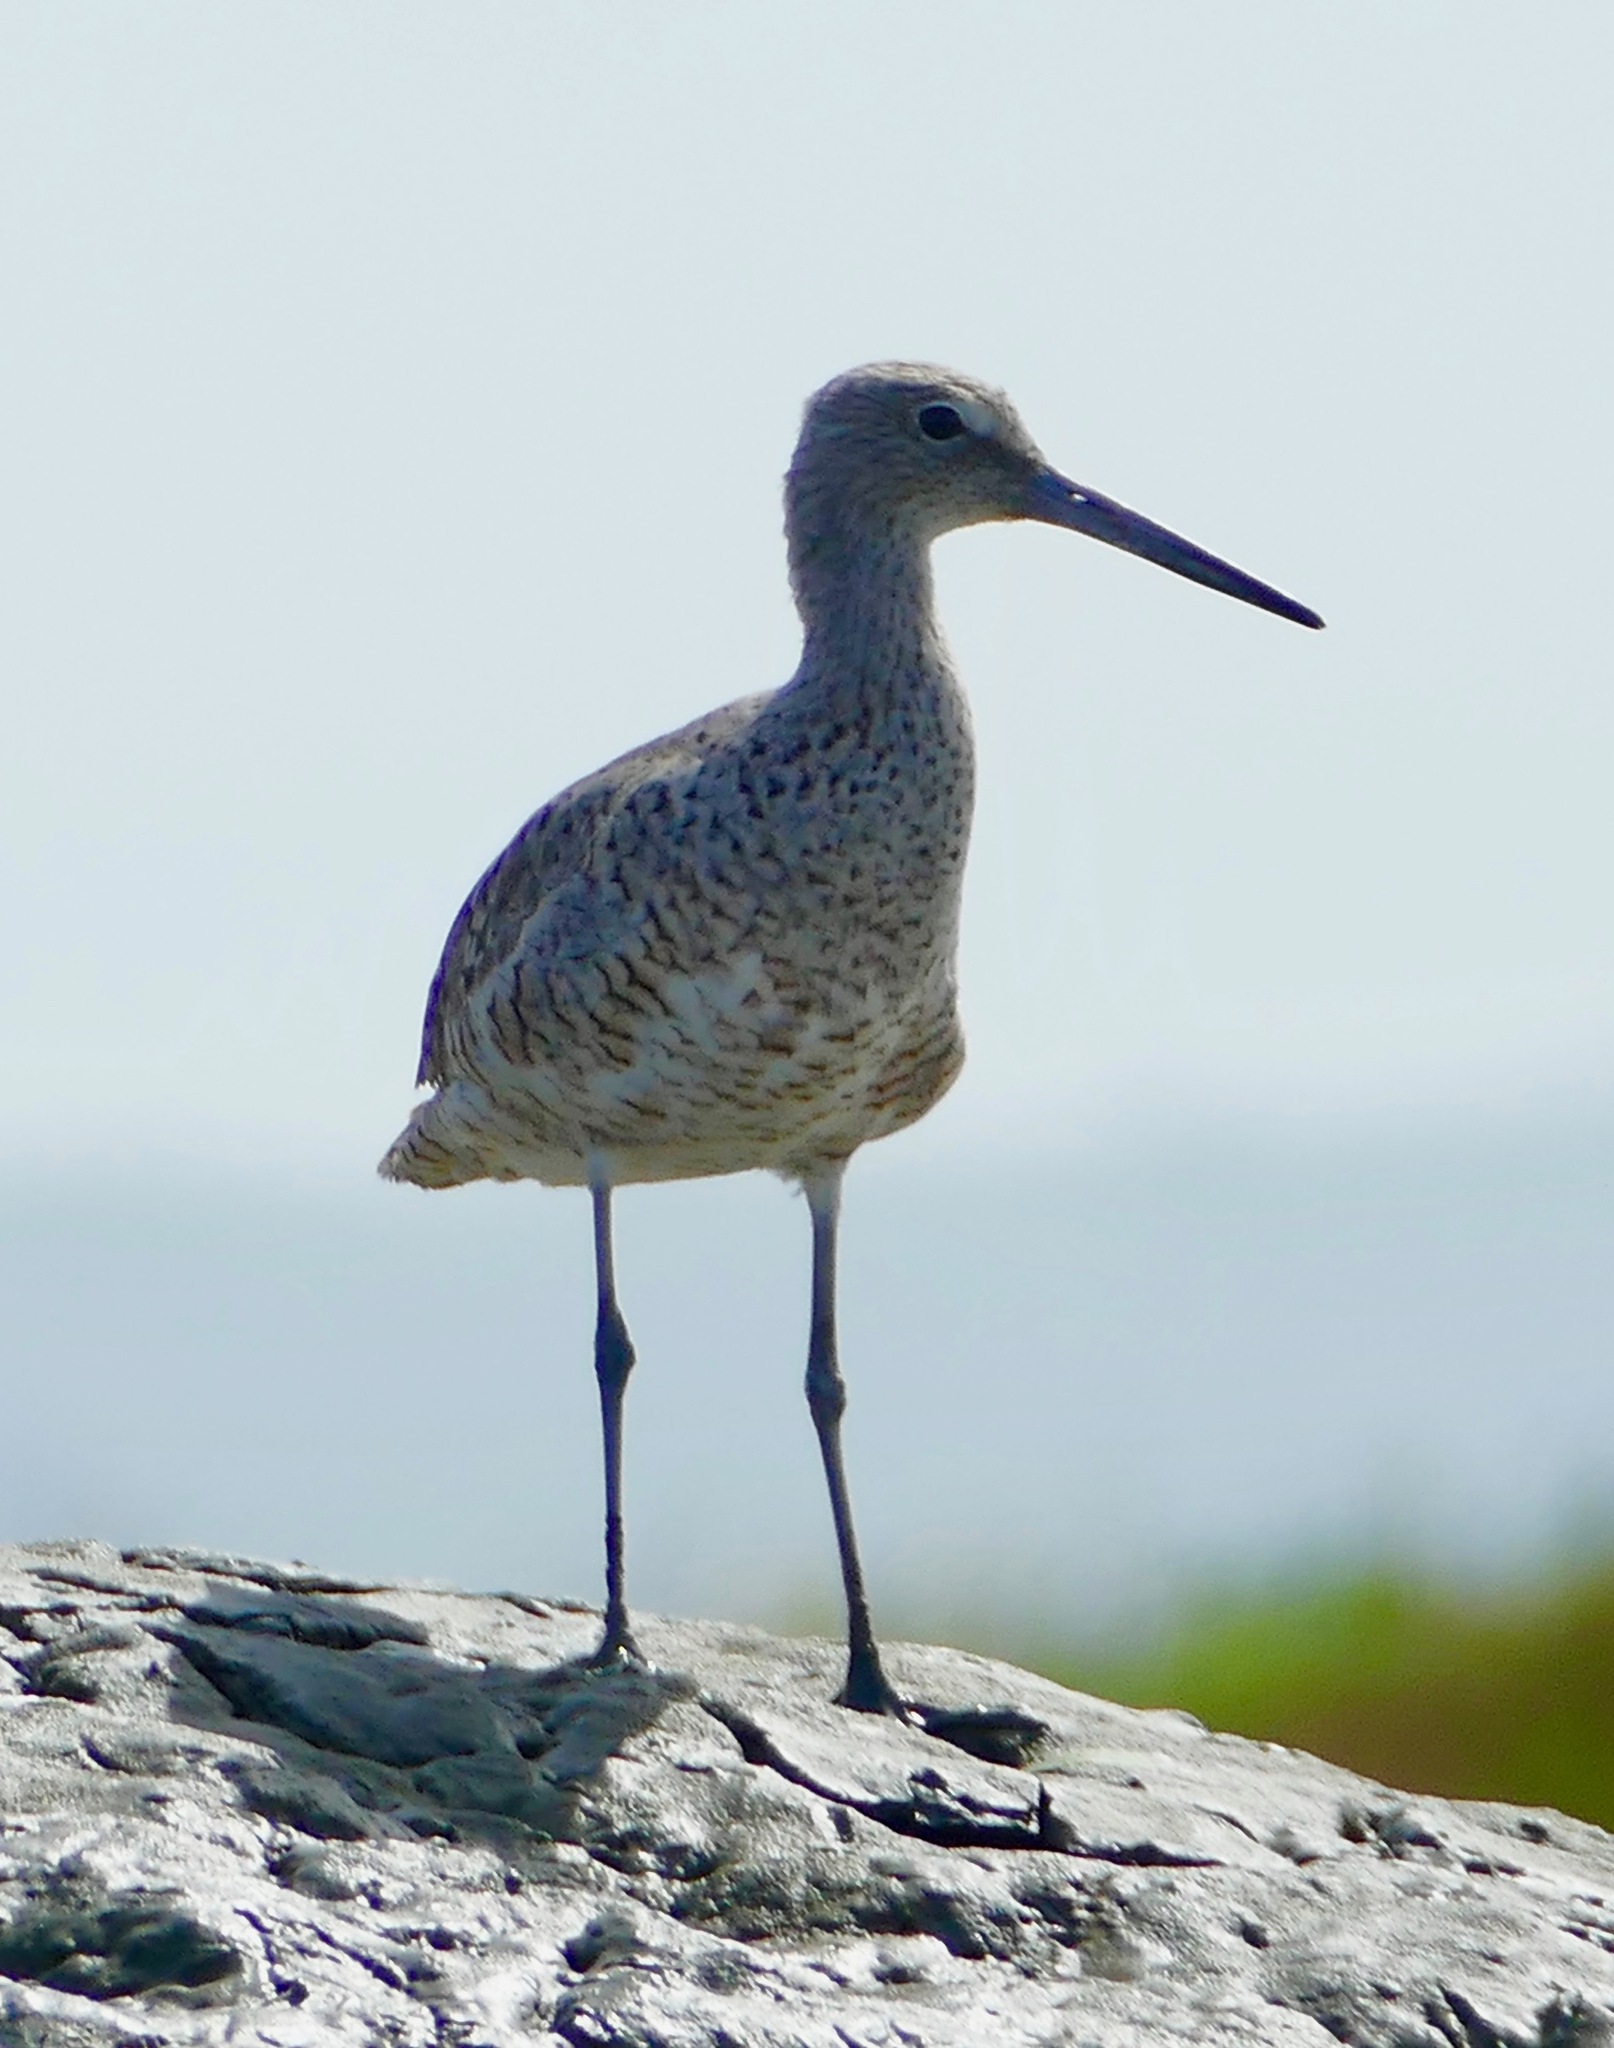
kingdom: Animalia
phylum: Chordata
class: Aves
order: Charadriiformes
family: Scolopacidae
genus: Tringa
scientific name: Tringa semipalmata
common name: Willet
